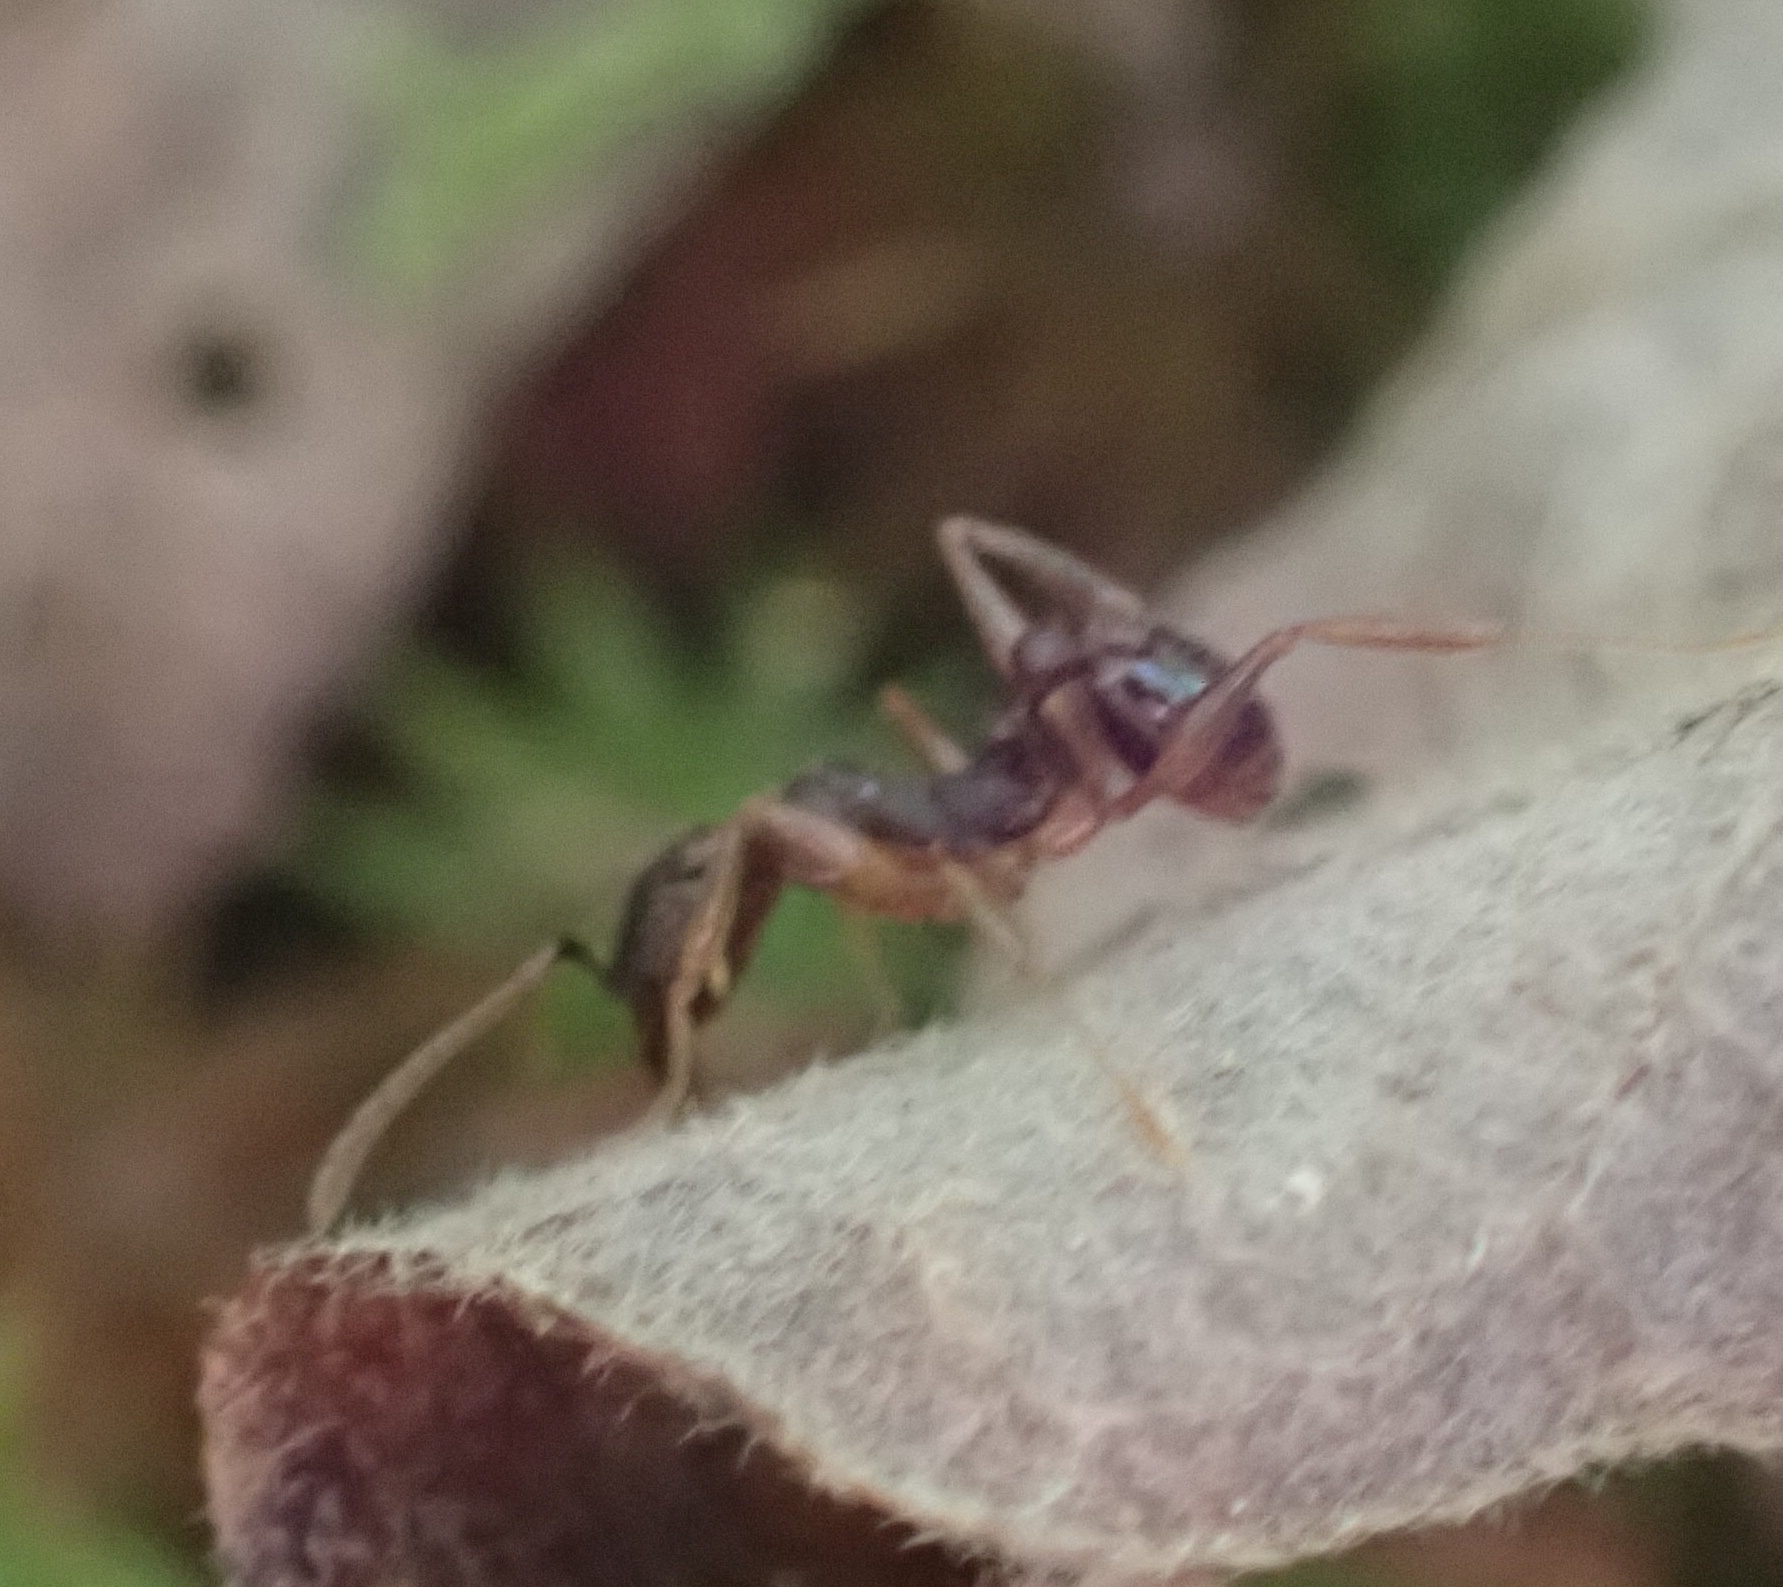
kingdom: Animalia
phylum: Arthropoda
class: Insecta
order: Hymenoptera
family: Formicidae
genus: Aphaenogaster
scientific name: Aphaenogaster rudis
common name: Winnow ant
